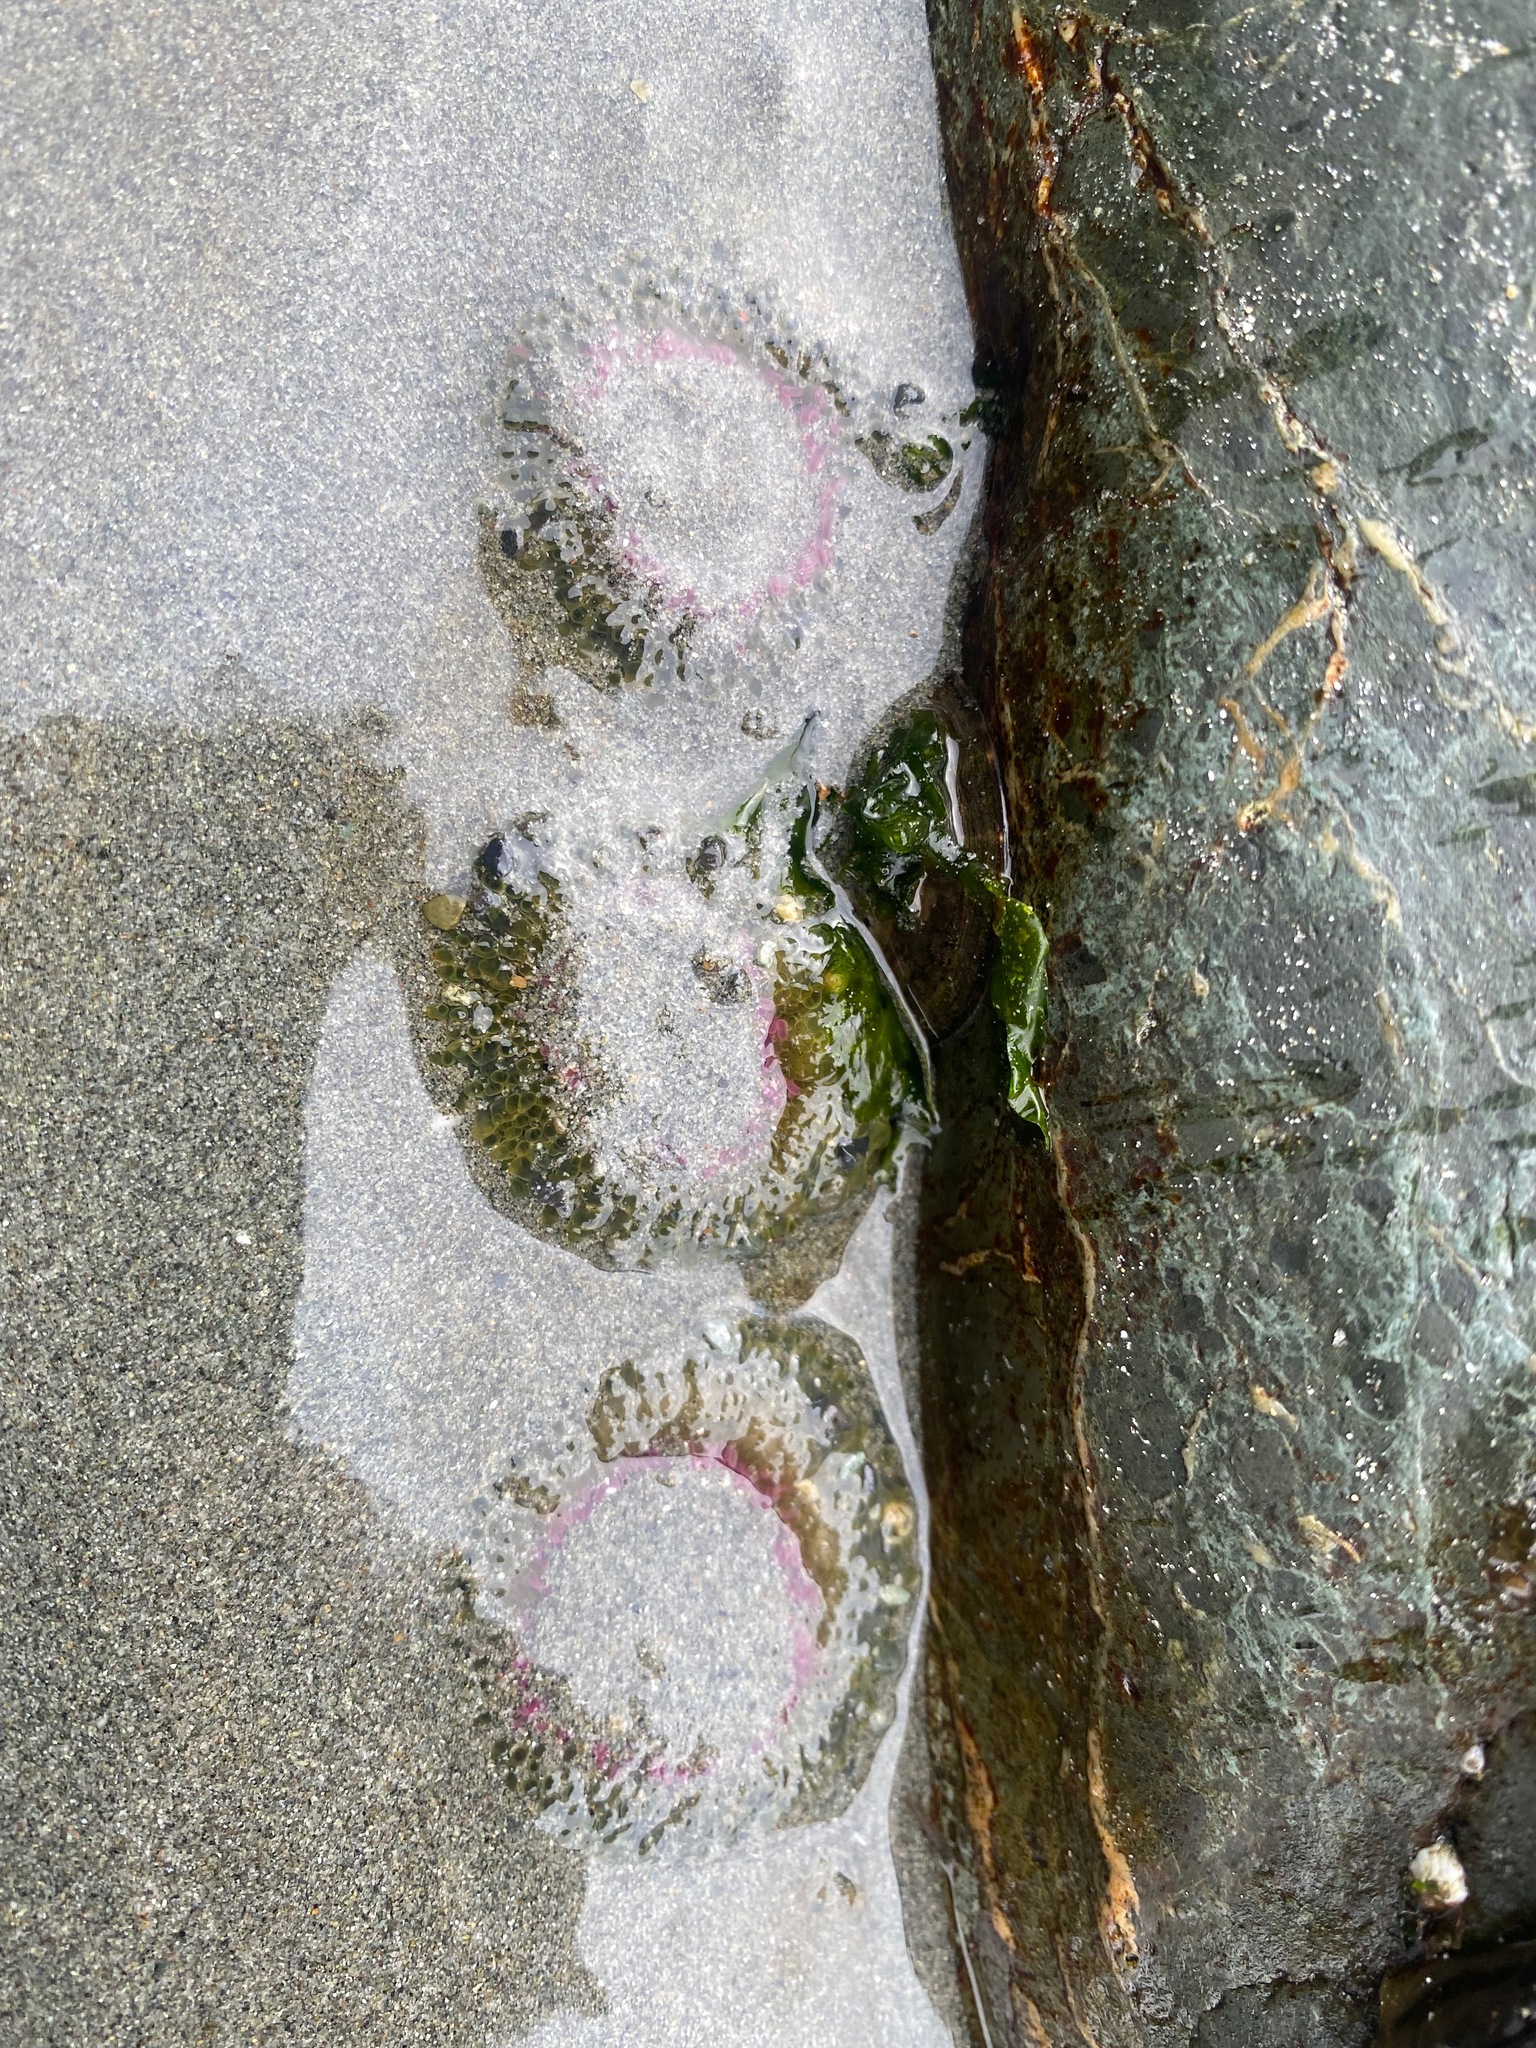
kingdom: Animalia
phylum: Cnidaria
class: Anthozoa
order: Actiniaria
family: Actiniidae
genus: Anthopleura
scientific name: Anthopleura elegantissima
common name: Clonal anemone
